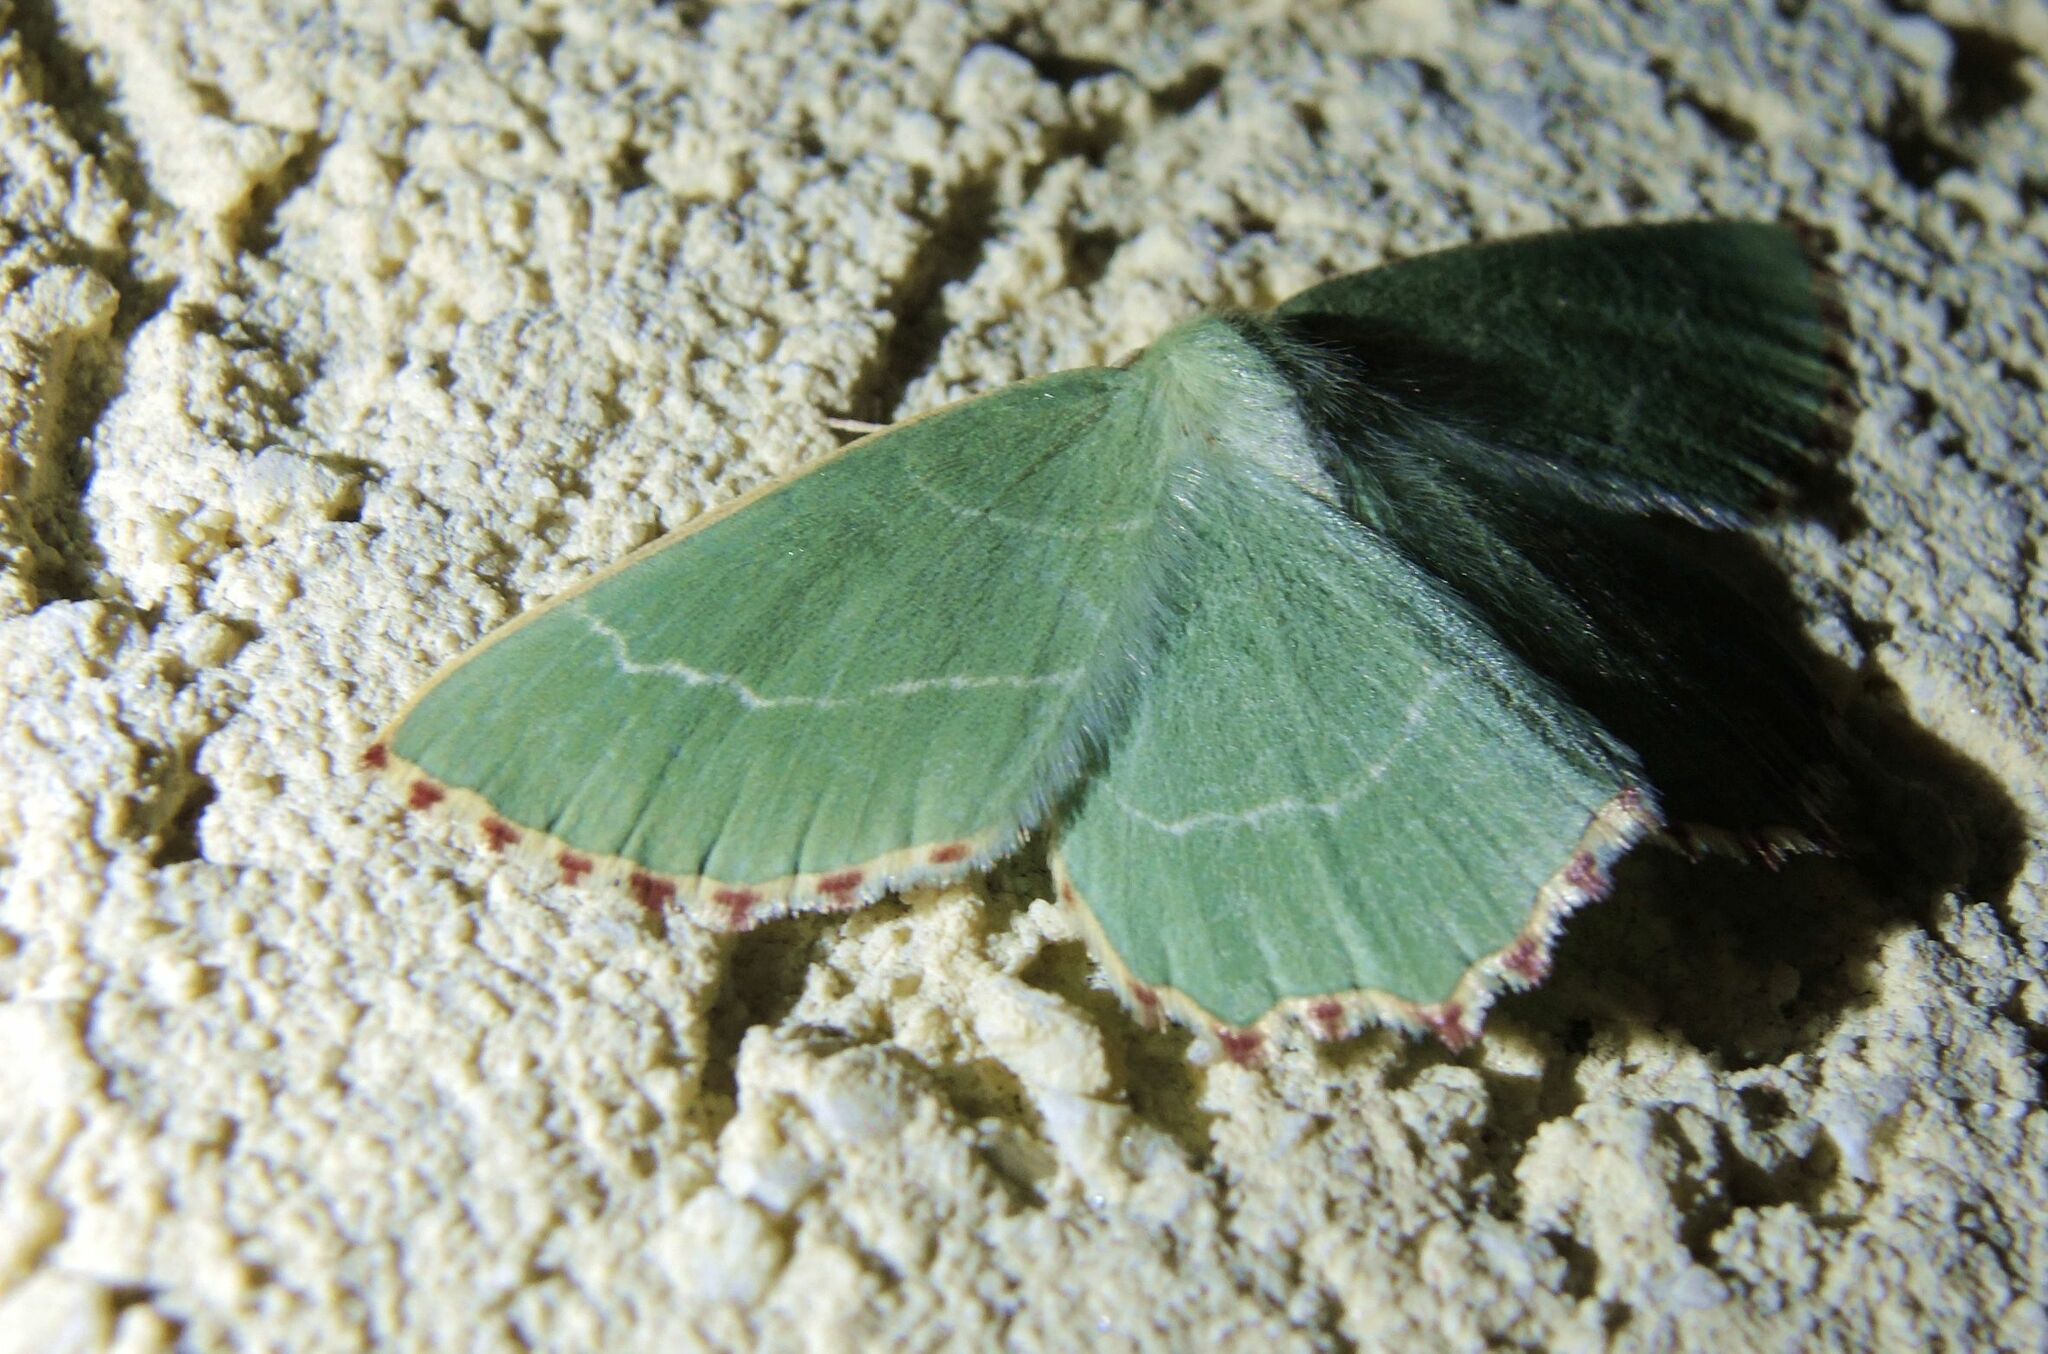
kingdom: Animalia
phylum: Arthropoda
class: Insecta
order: Lepidoptera
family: Geometridae
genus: Thalera
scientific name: Thalera fimbrialis
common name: Sussex emerald
